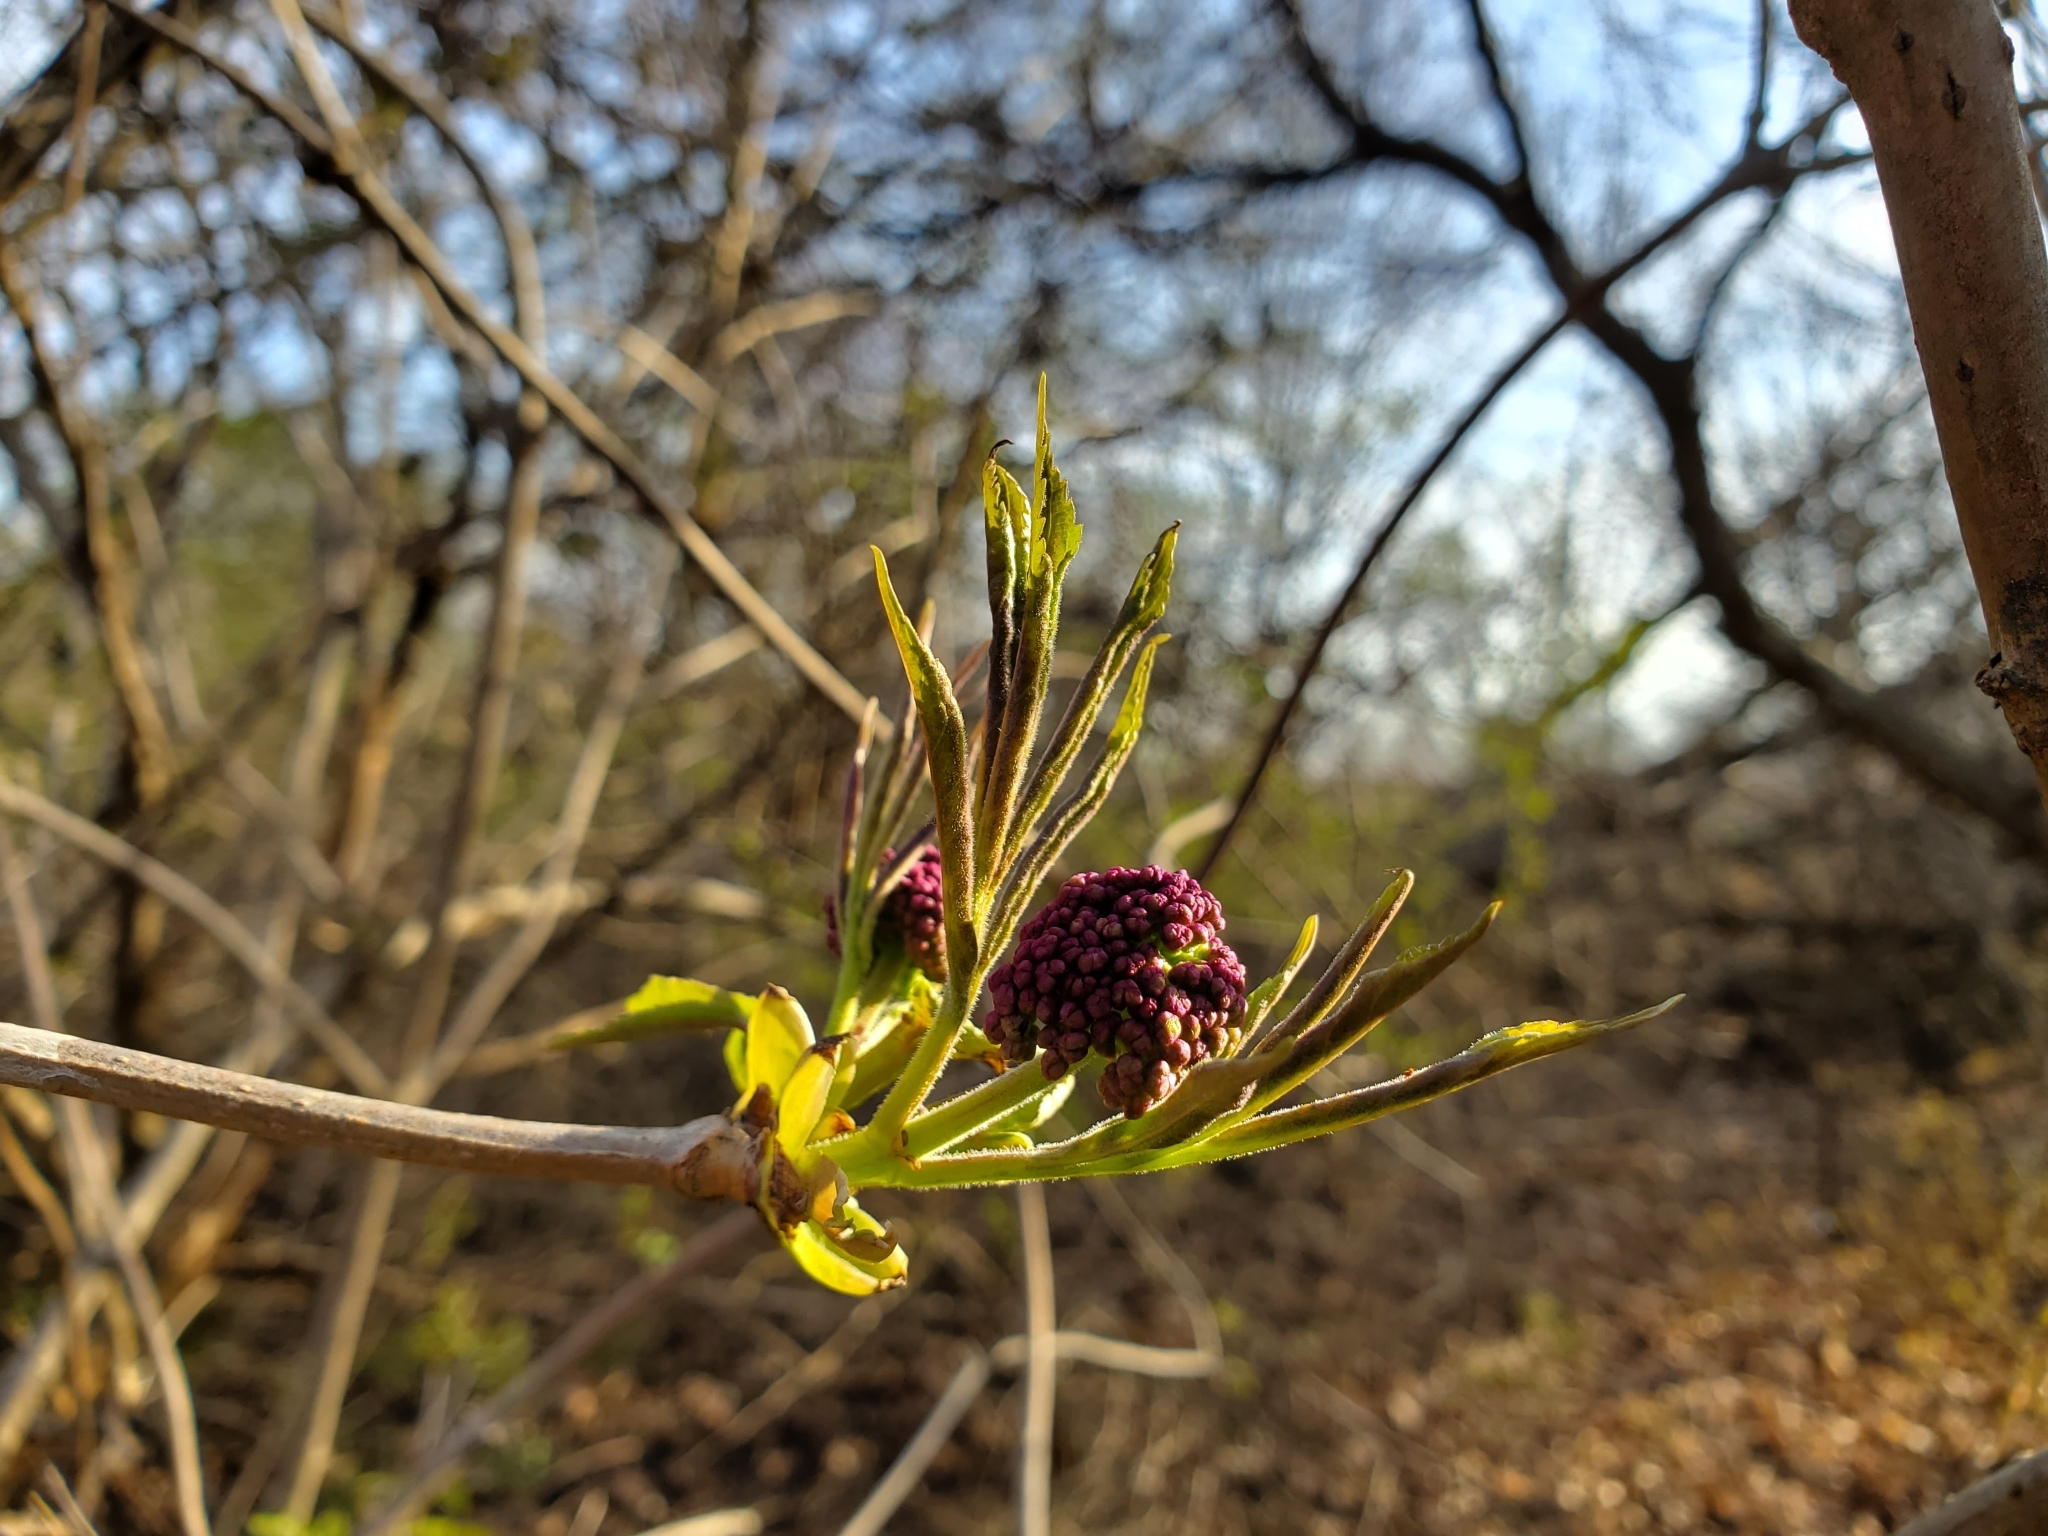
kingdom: Plantae
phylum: Tracheophyta
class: Magnoliopsida
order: Dipsacales
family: Viburnaceae
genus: Sambucus
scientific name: Sambucus racemosa
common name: Red-berried elder
